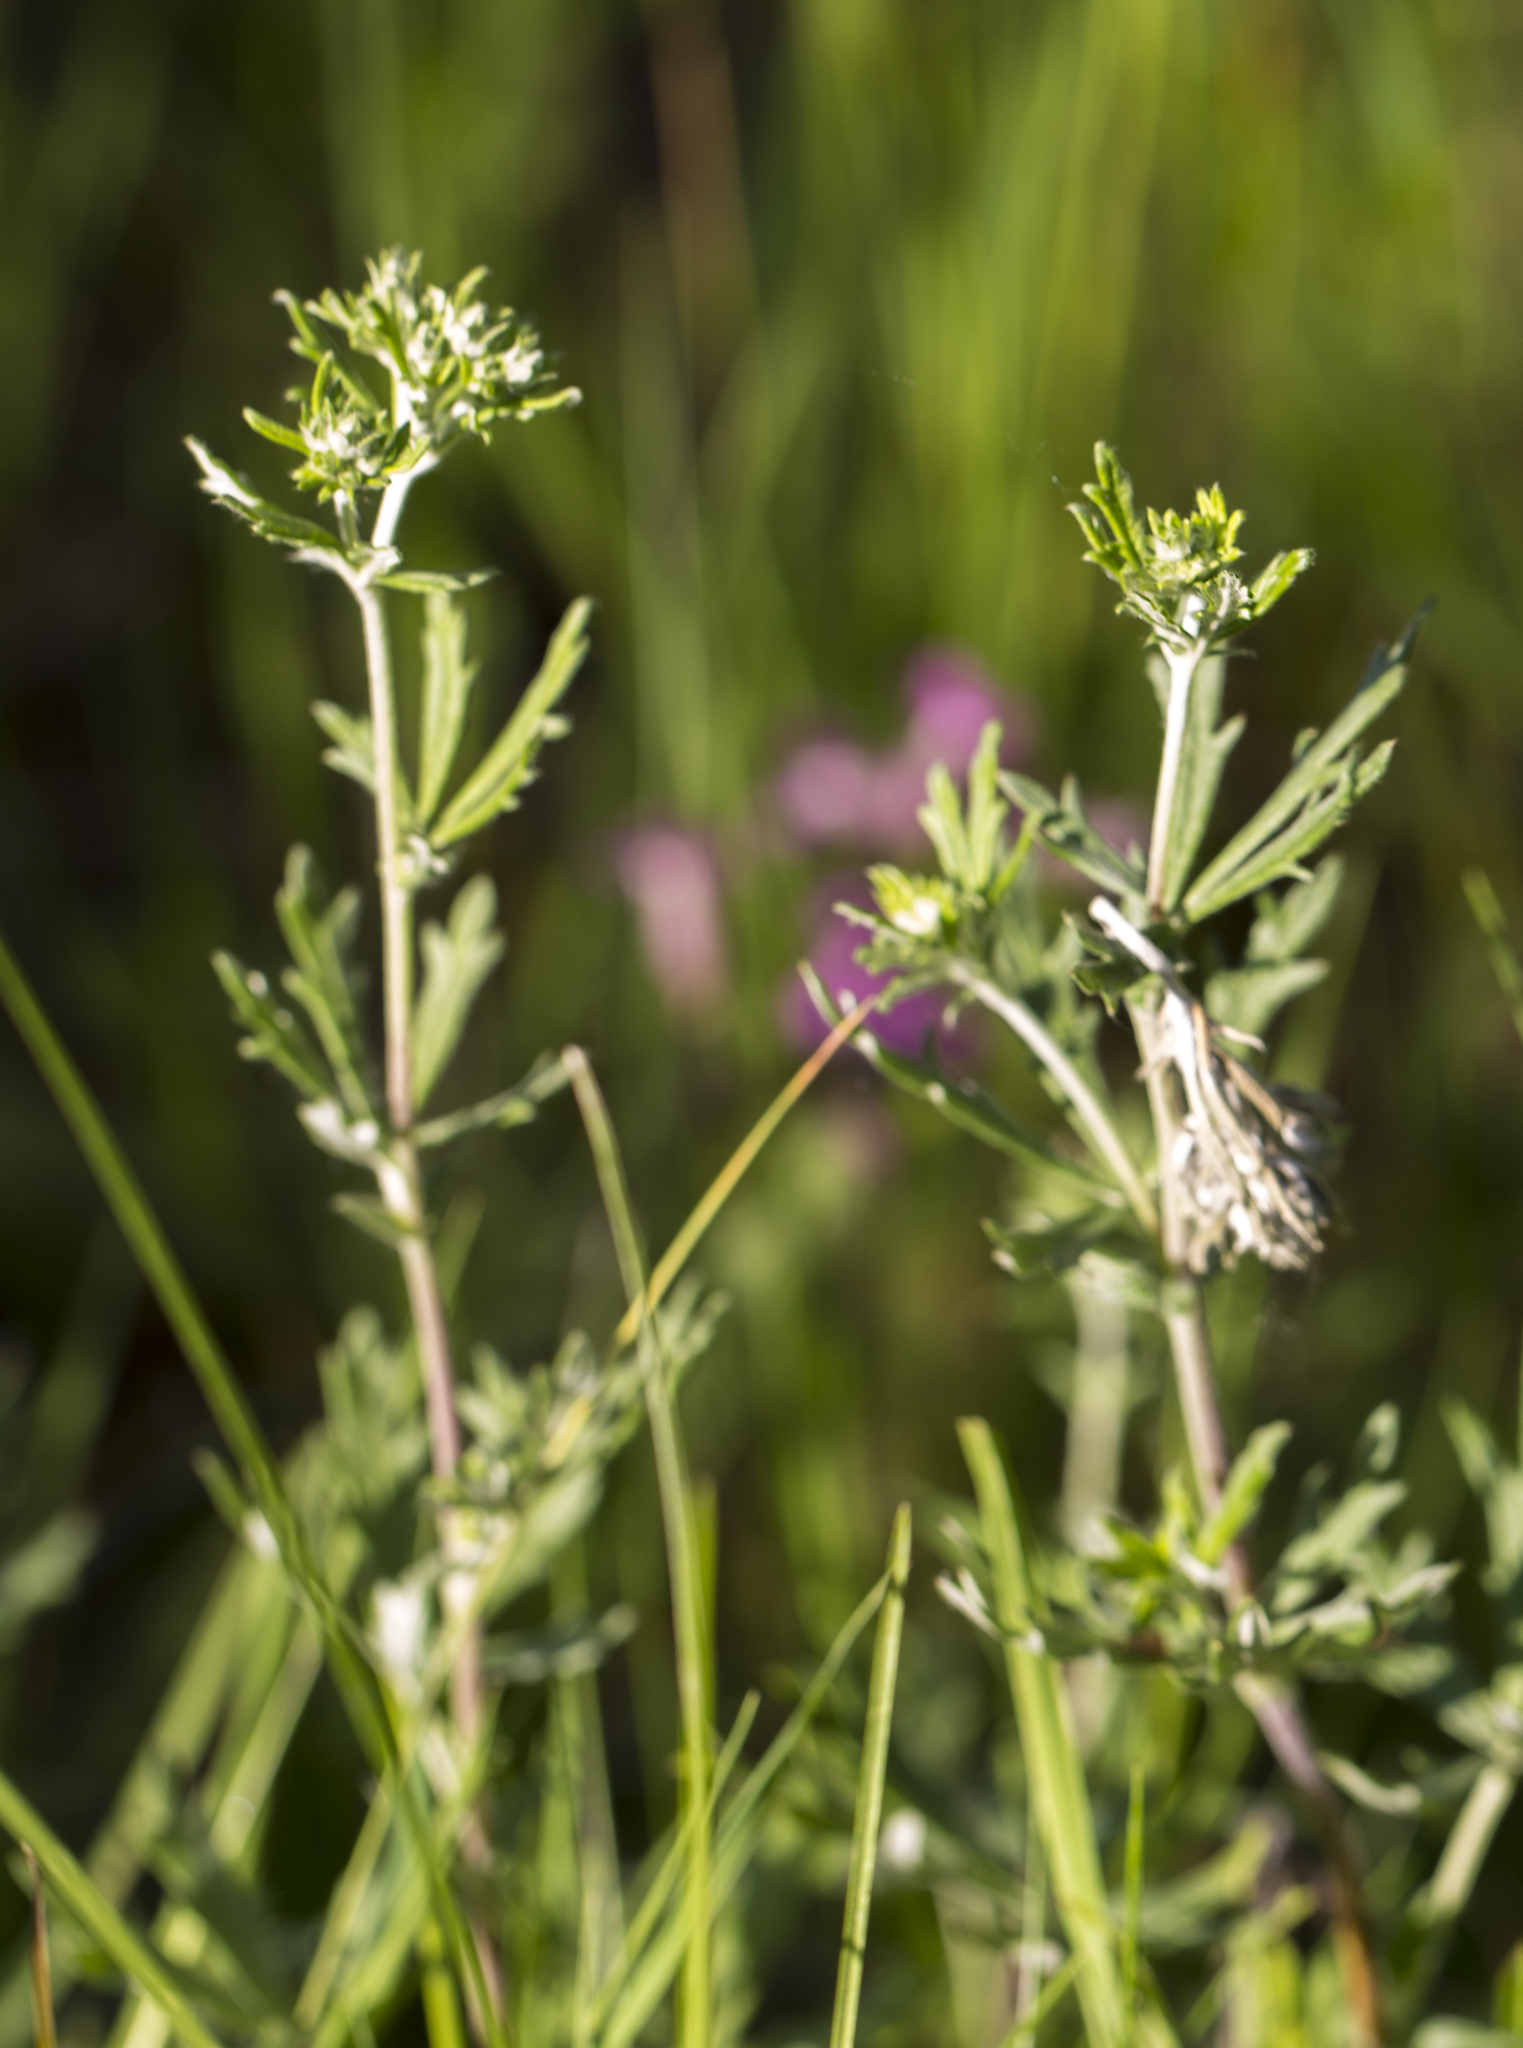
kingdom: Plantae
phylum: Tracheophyta
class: Magnoliopsida
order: Rosales
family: Rosaceae
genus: Potentilla
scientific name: Potentilla argentea
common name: Hoary cinquefoil
